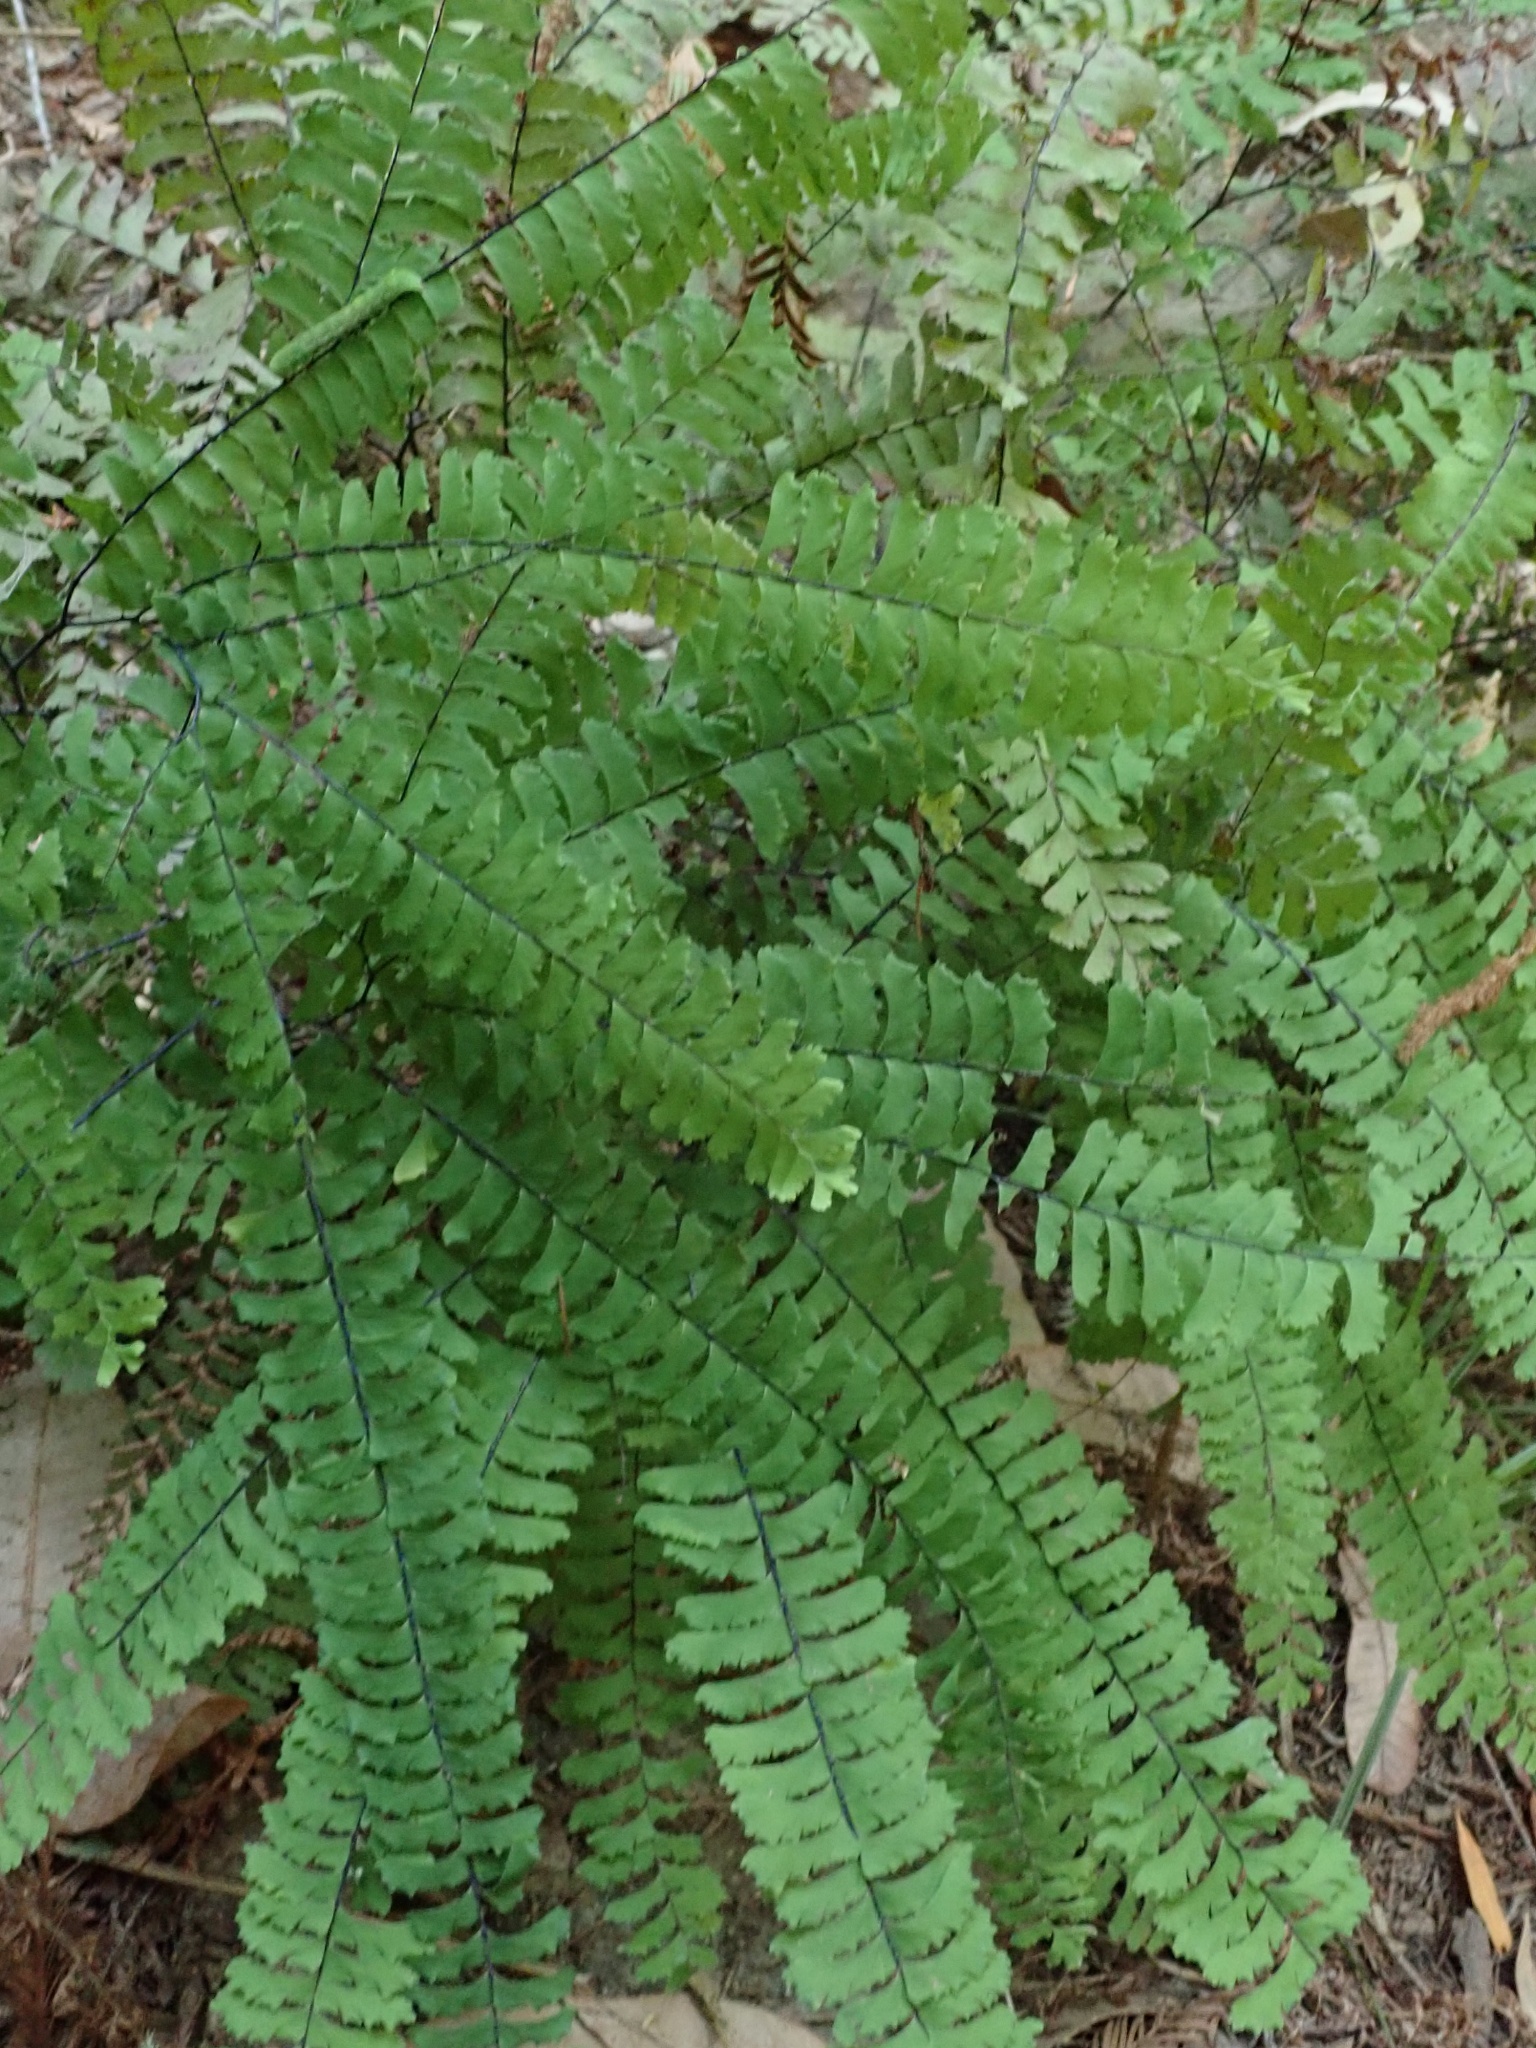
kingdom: Plantae
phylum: Tracheophyta
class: Polypodiopsida
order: Polypodiales
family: Pteridaceae
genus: Adiantum
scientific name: Adiantum aleuticum
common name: Aleutian maidenhair fern
